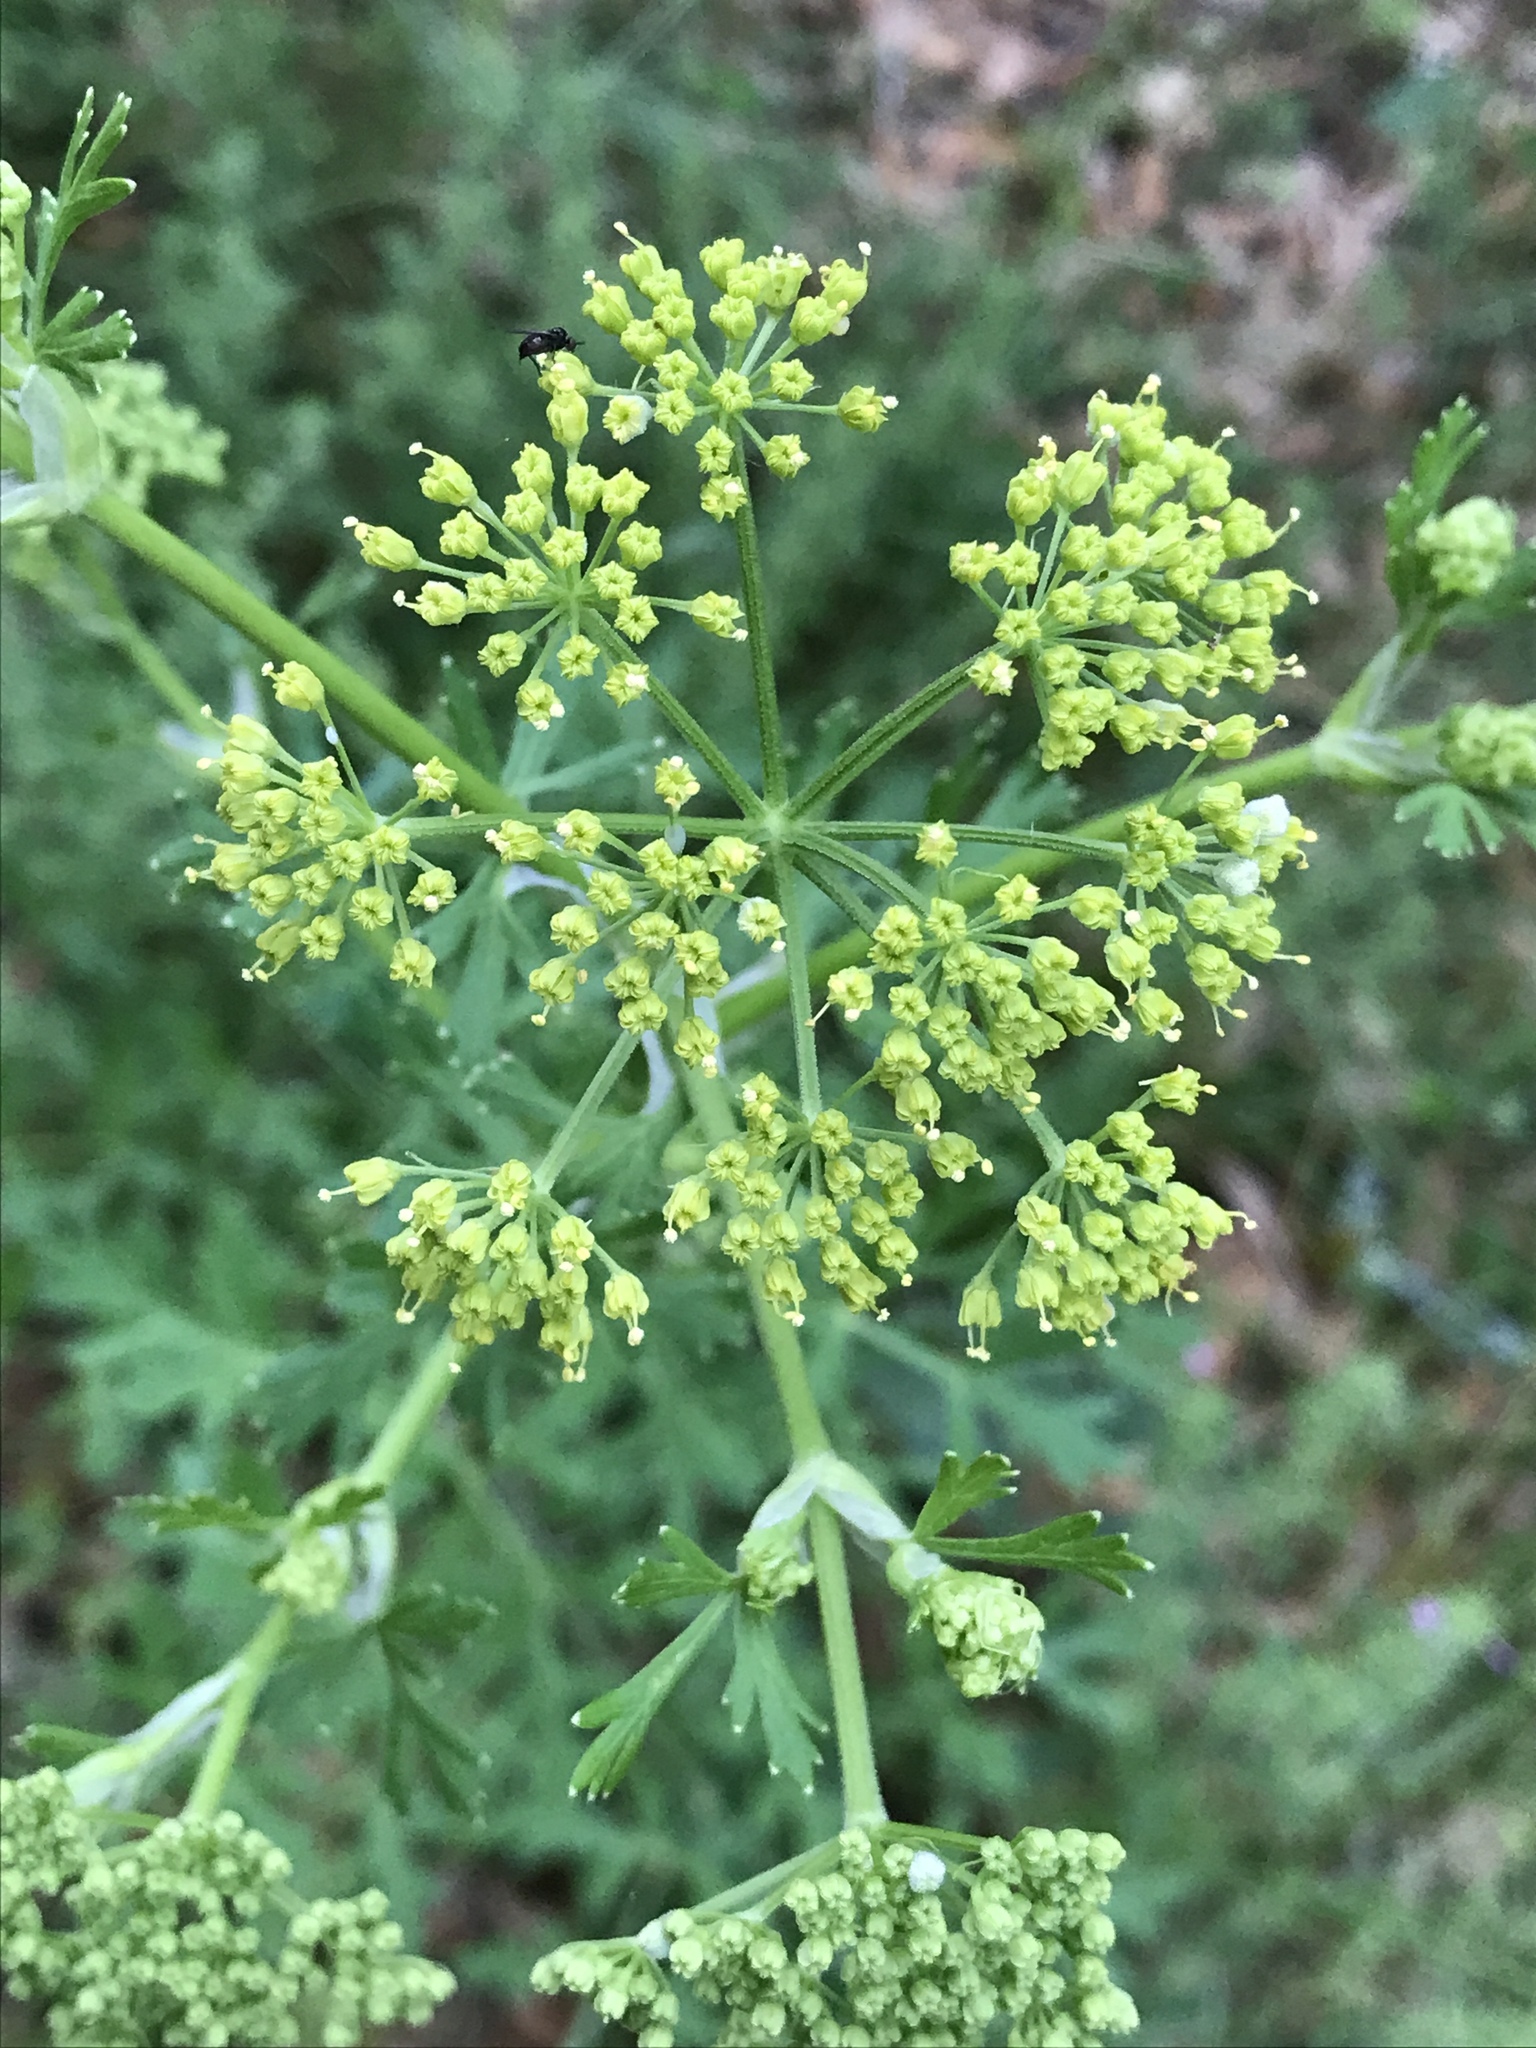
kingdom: Plantae
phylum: Tracheophyta
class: Magnoliopsida
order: Apiales
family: Apiaceae
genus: Polytaenia
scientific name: Polytaenia texana
